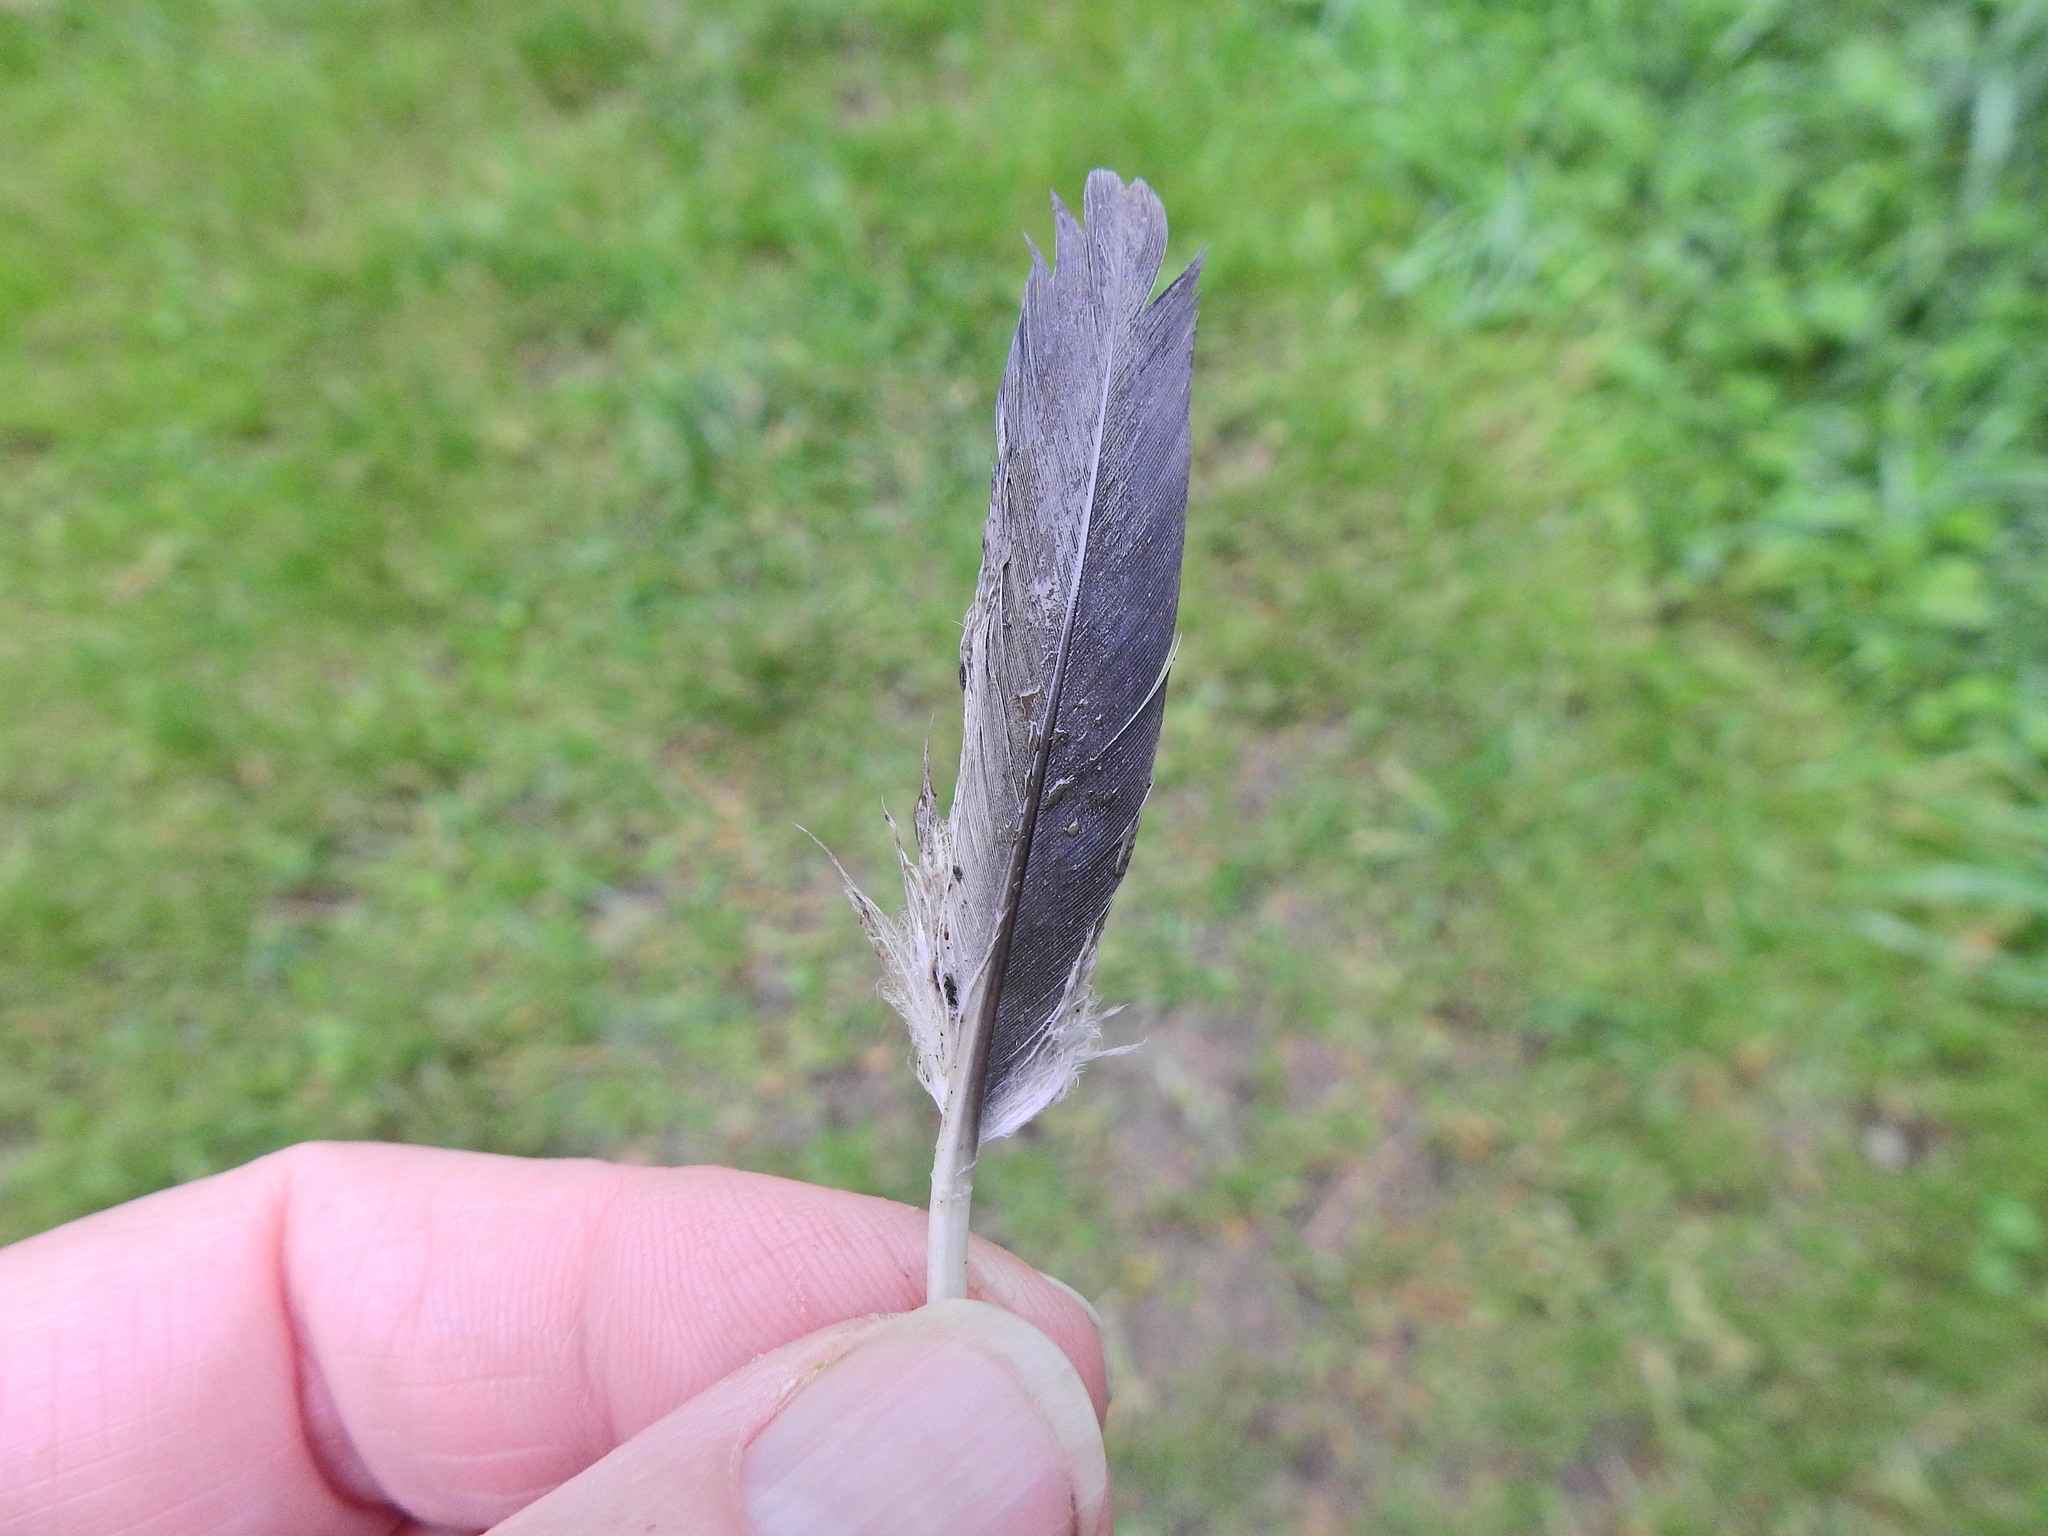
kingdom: Animalia
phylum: Chordata
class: Aves
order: Columbiformes
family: Columbidae
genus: Columba
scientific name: Columba palumbus
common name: Common wood pigeon
